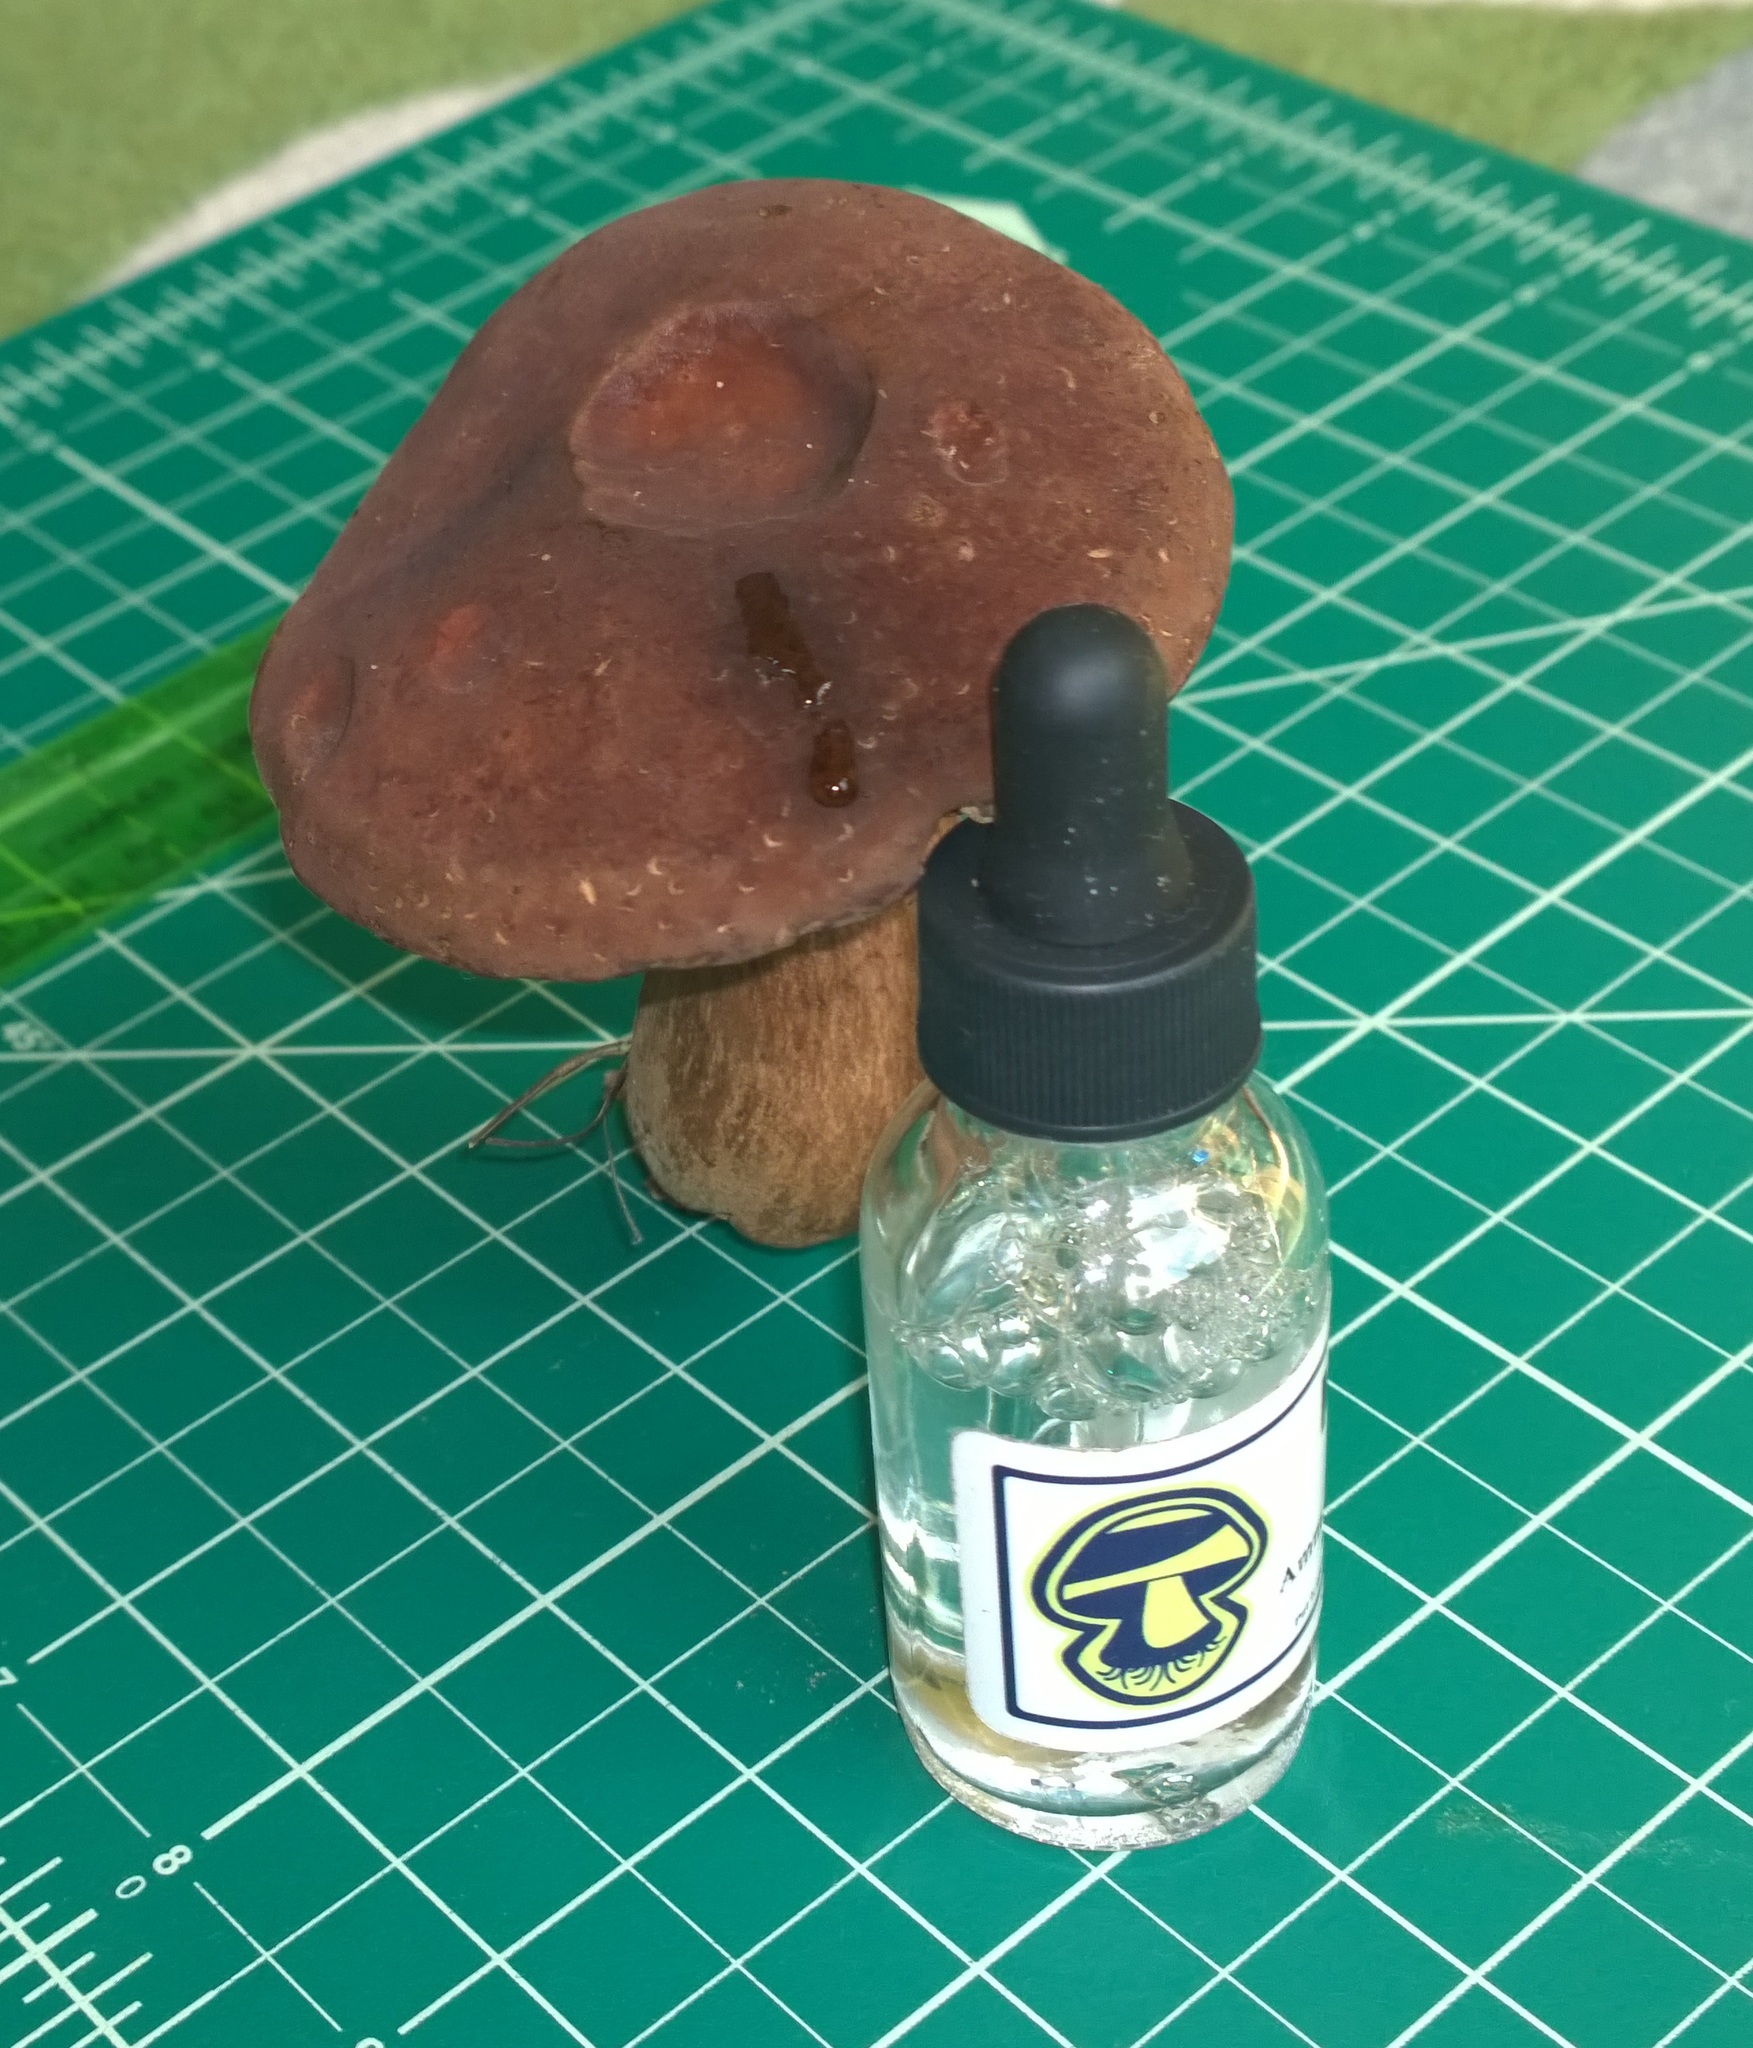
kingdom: Fungi
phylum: Basidiomycota
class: Agaricomycetes
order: Boletales
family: Boletaceae
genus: Tylopilus
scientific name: Tylopilus ferrugineus
